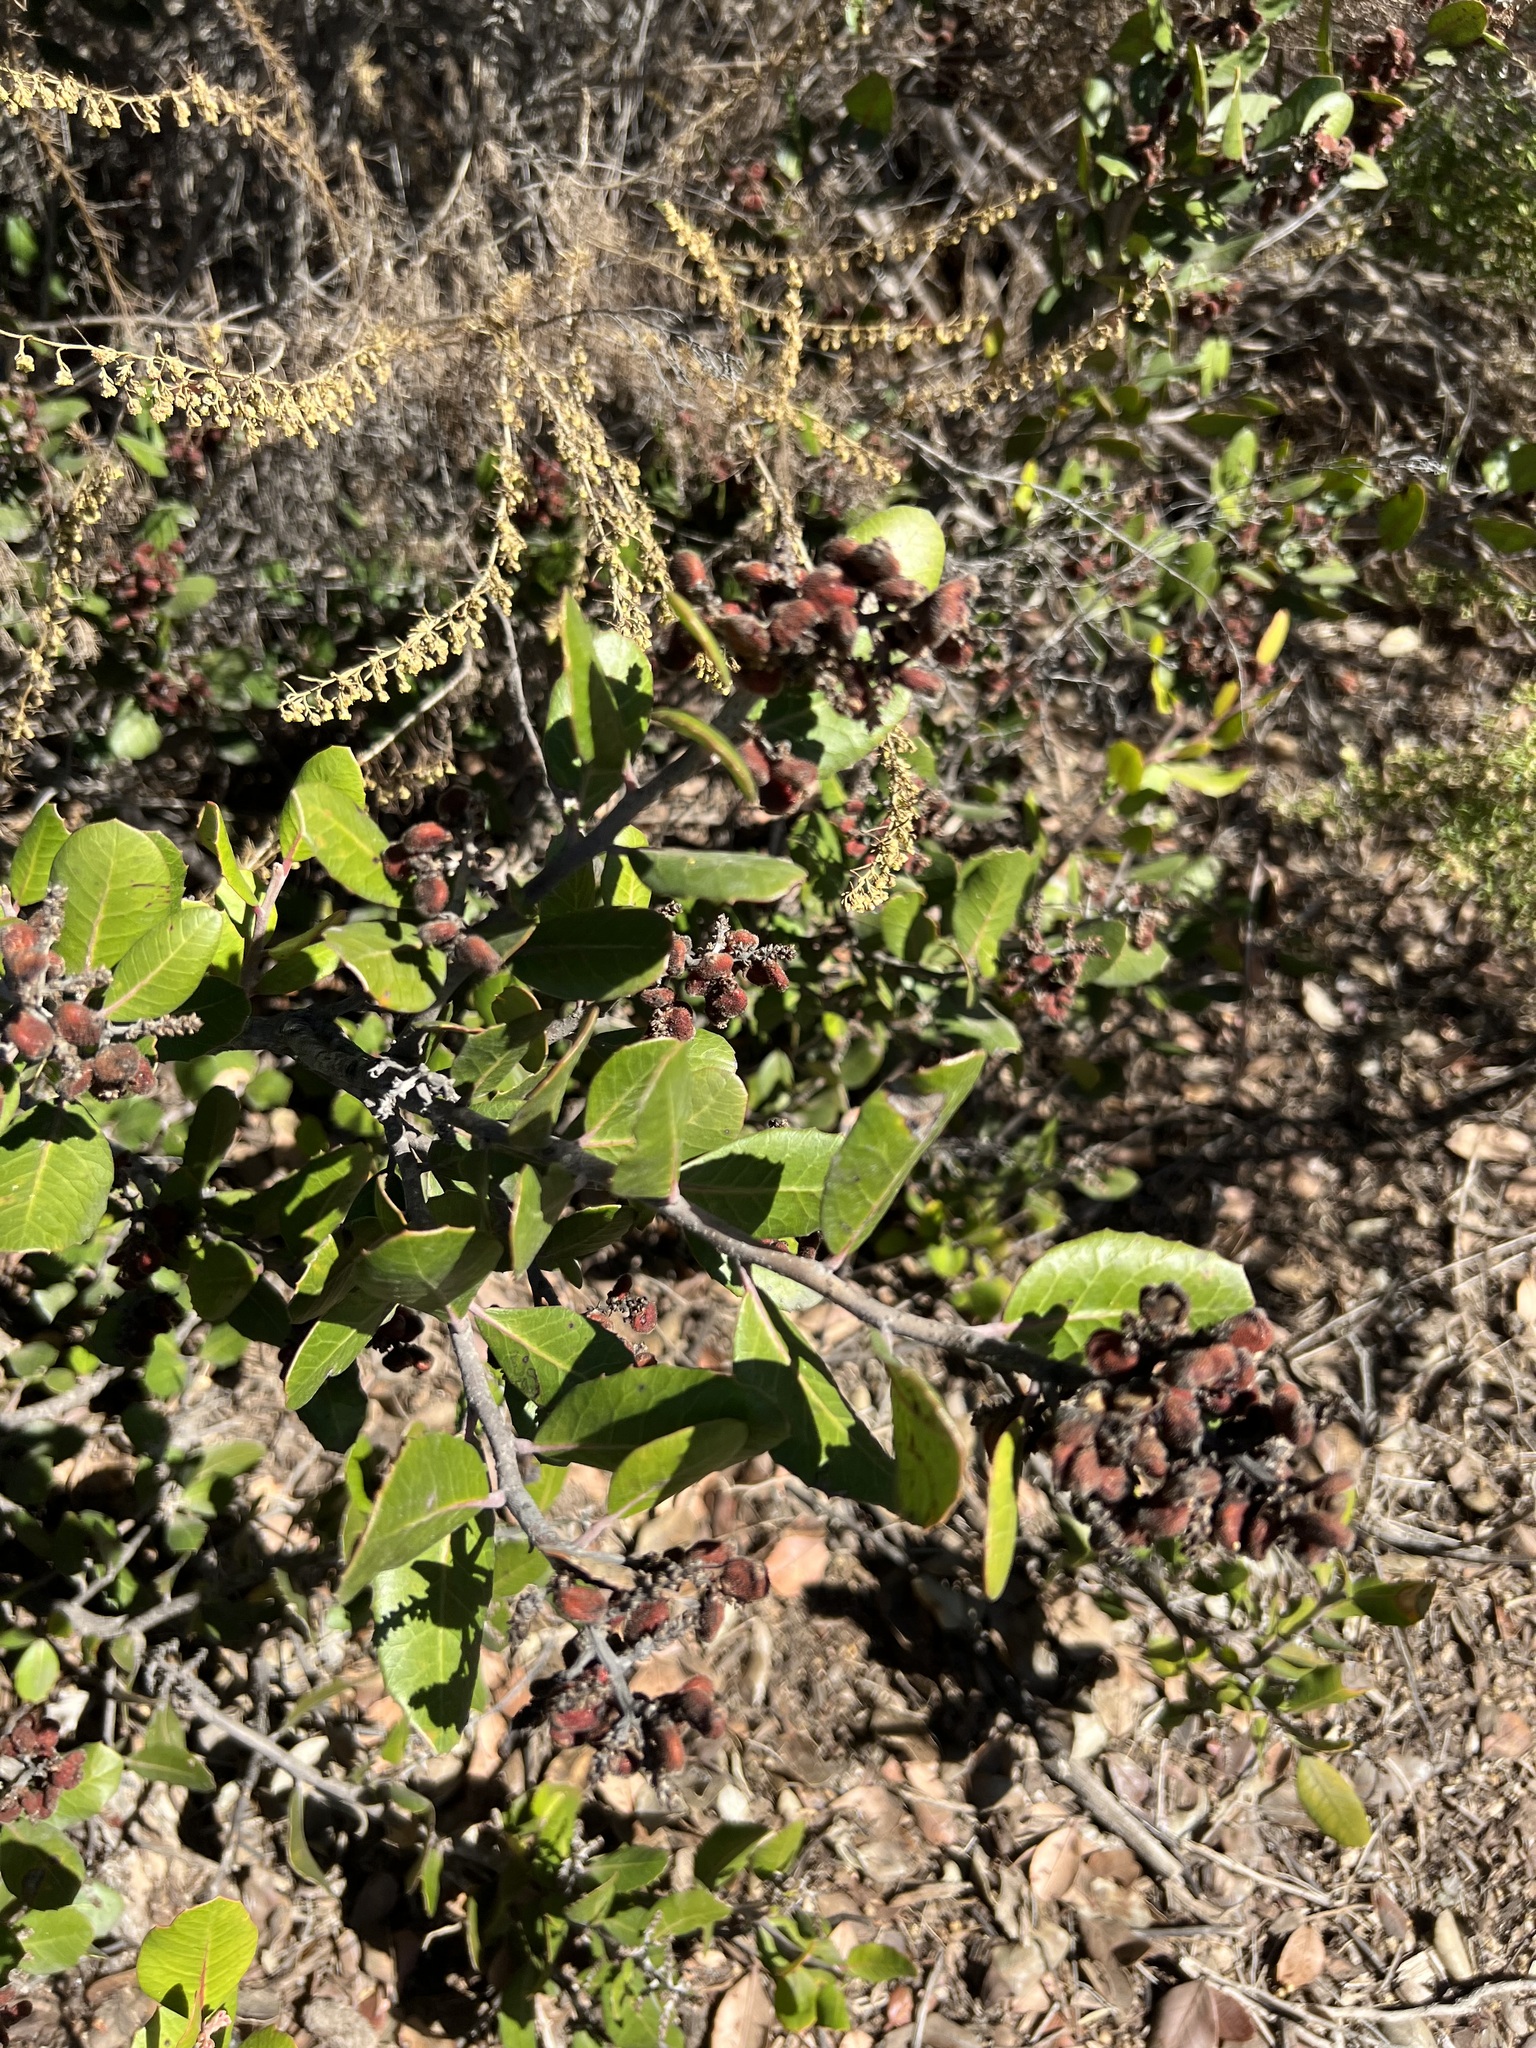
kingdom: Plantae
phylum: Tracheophyta
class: Magnoliopsida
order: Sapindales
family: Anacardiaceae
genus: Rhus
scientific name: Rhus integrifolia
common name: Lemonade sumac
